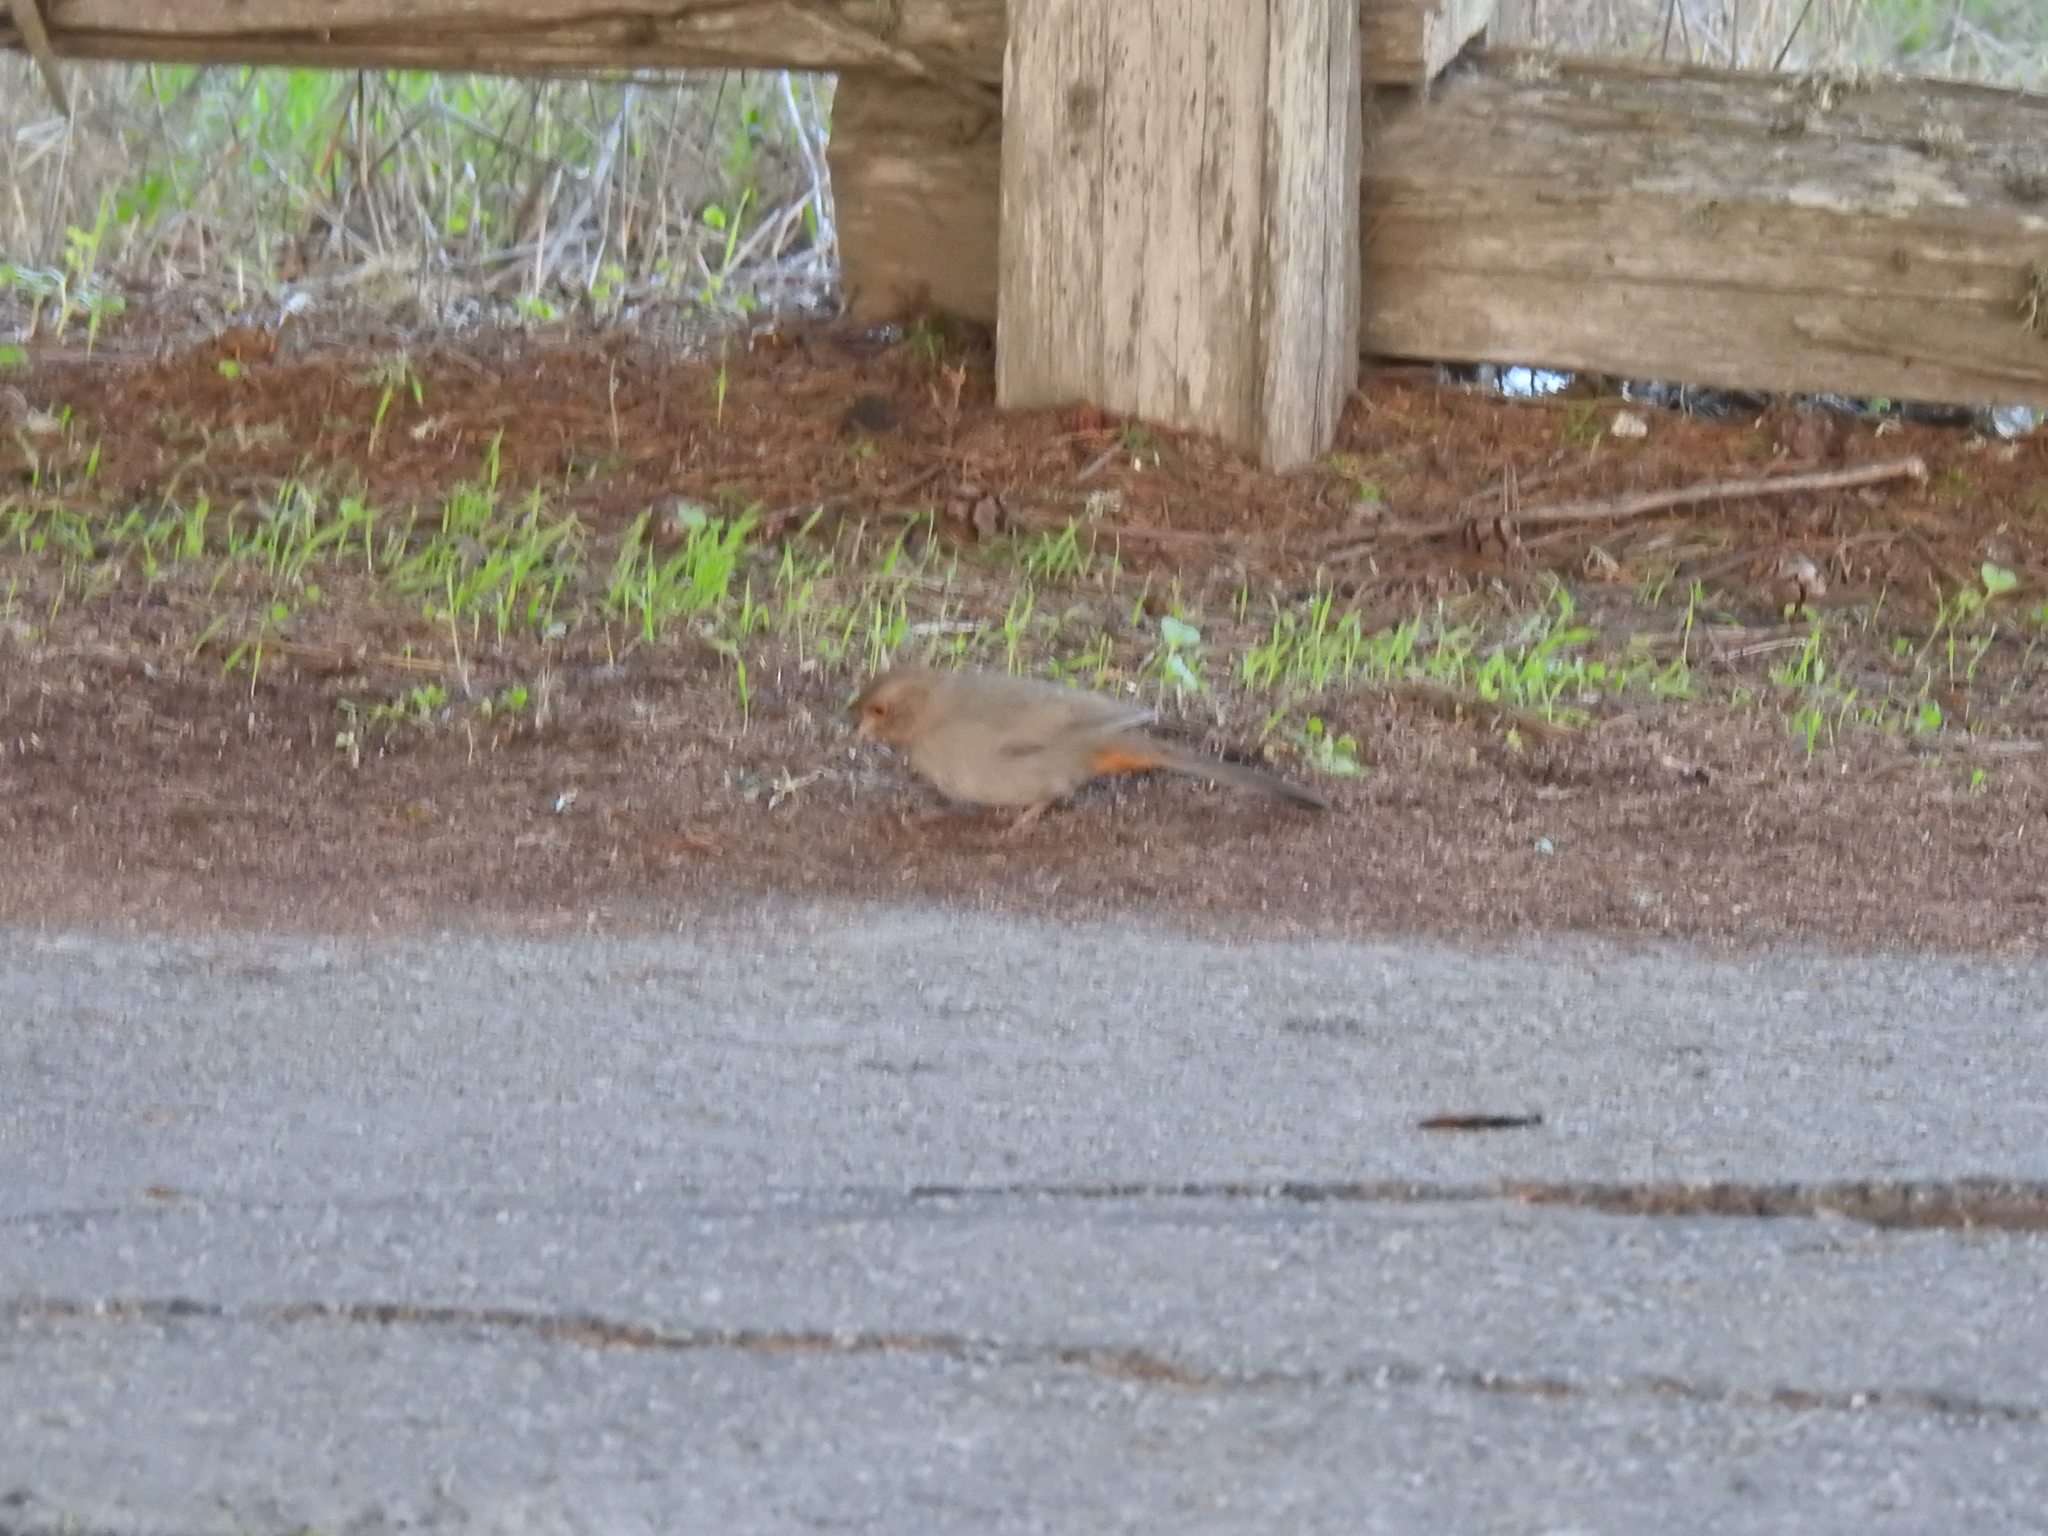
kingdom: Animalia
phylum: Chordata
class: Aves
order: Passeriformes
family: Passerellidae
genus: Melozone
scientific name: Melozone crissalis
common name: California towhee
